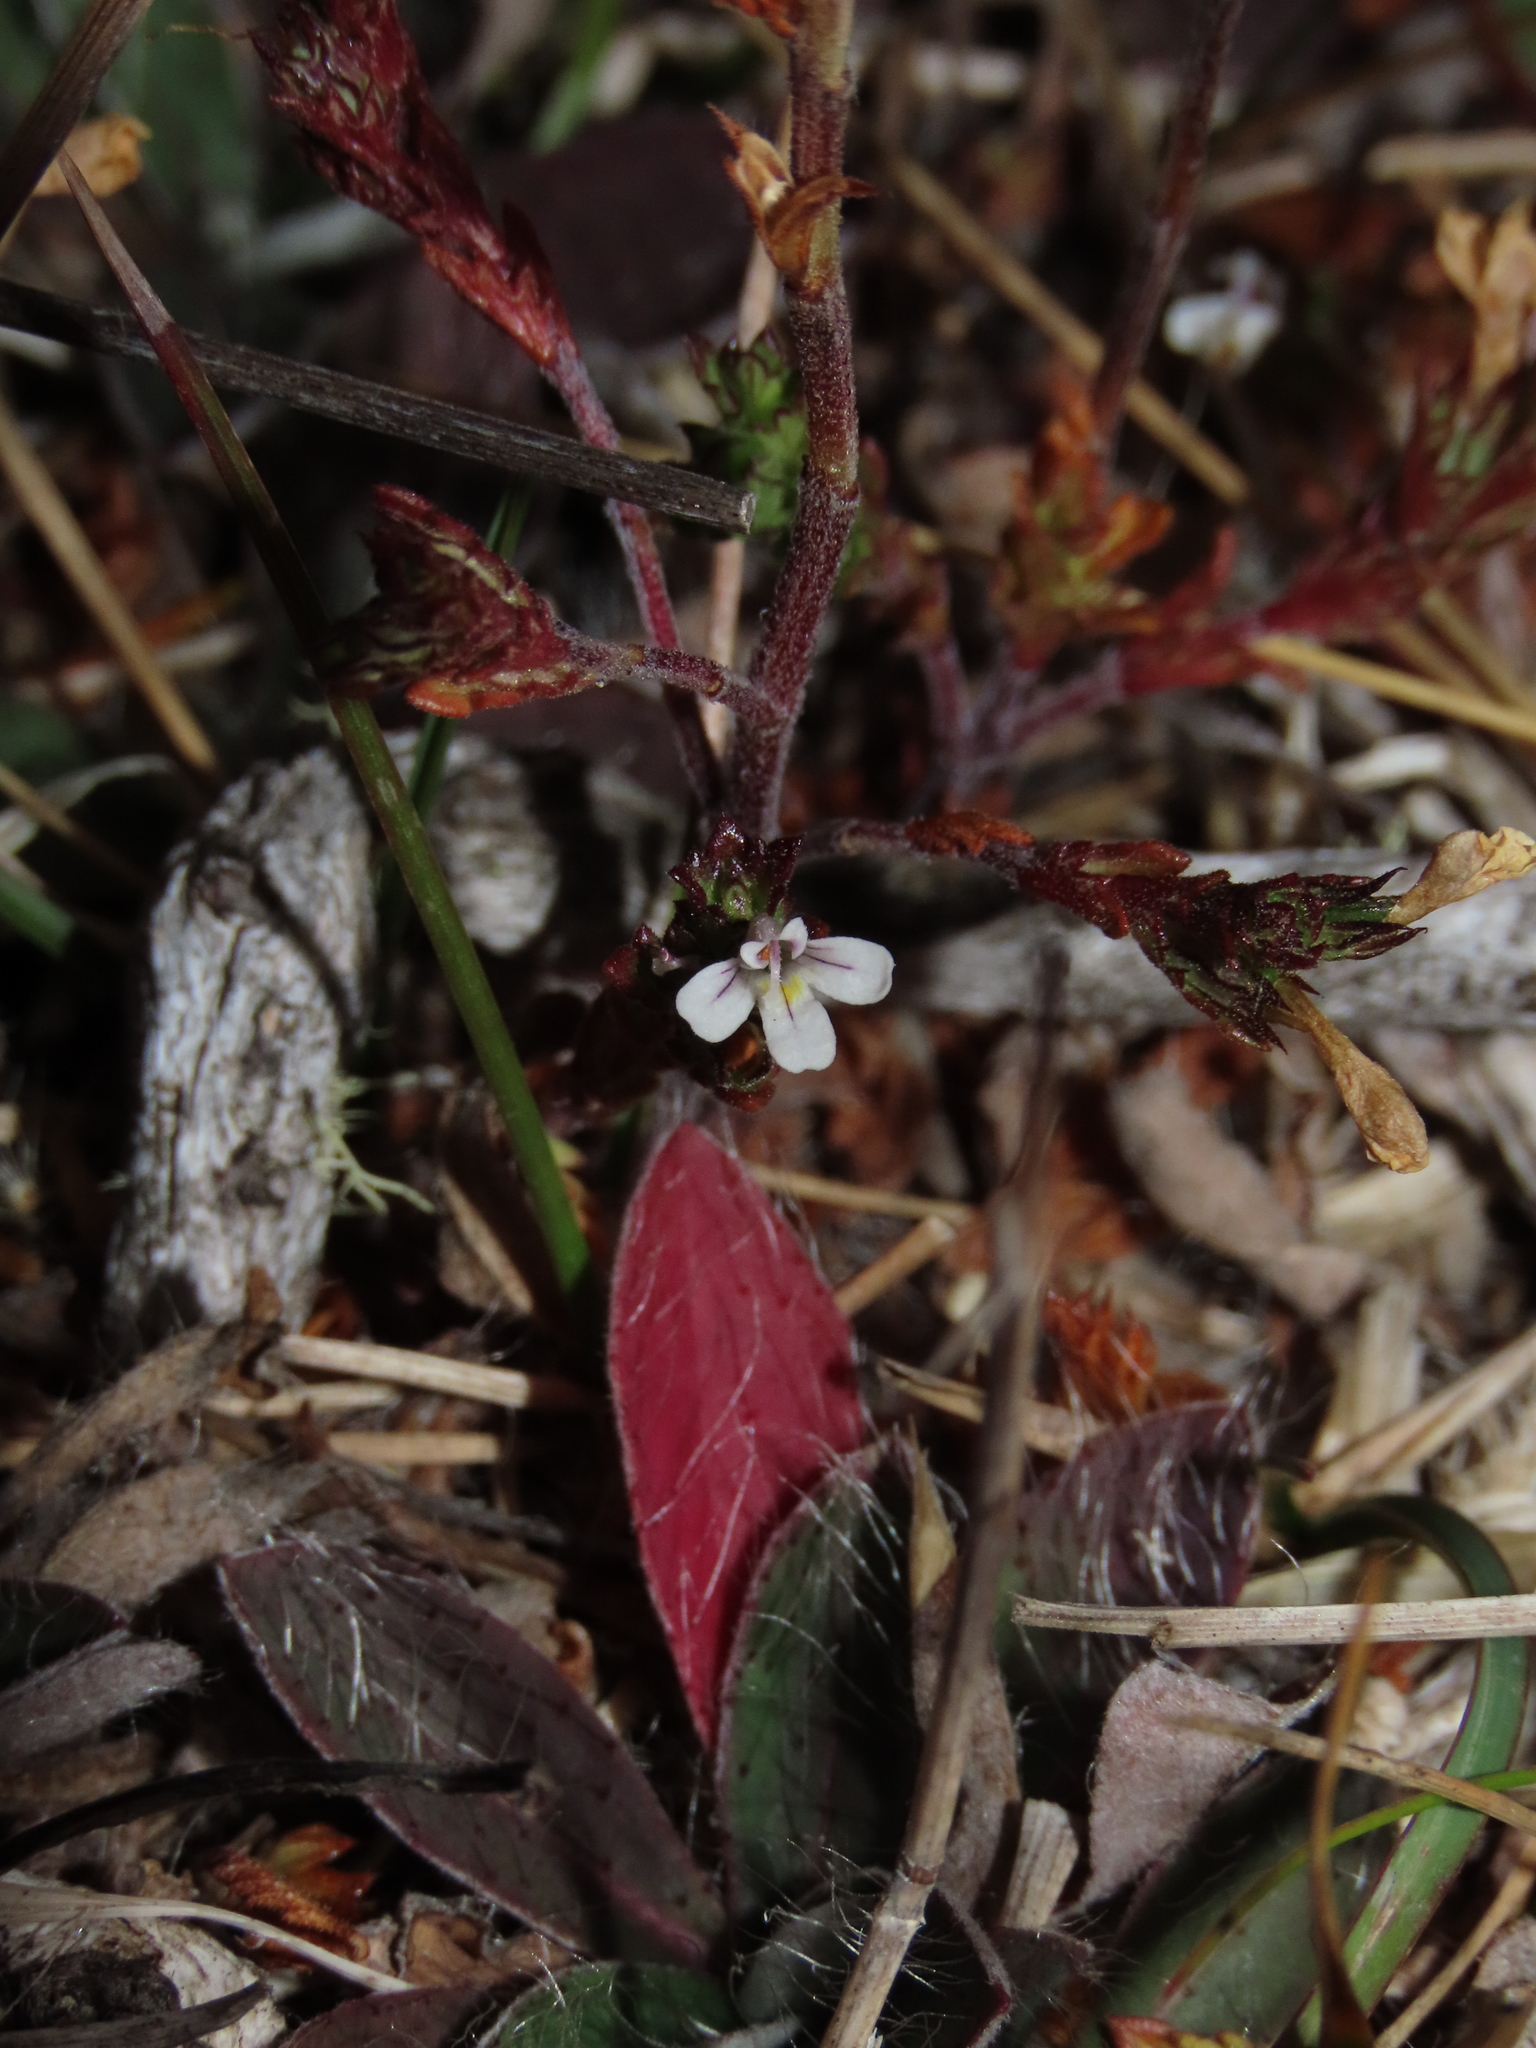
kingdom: Plantae
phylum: Tracheophyta
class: Magnoliopsida
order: Lamiales
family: Orobanchaceae
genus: Euphrasia
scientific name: Euphrasia officinalis
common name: Eyebright
